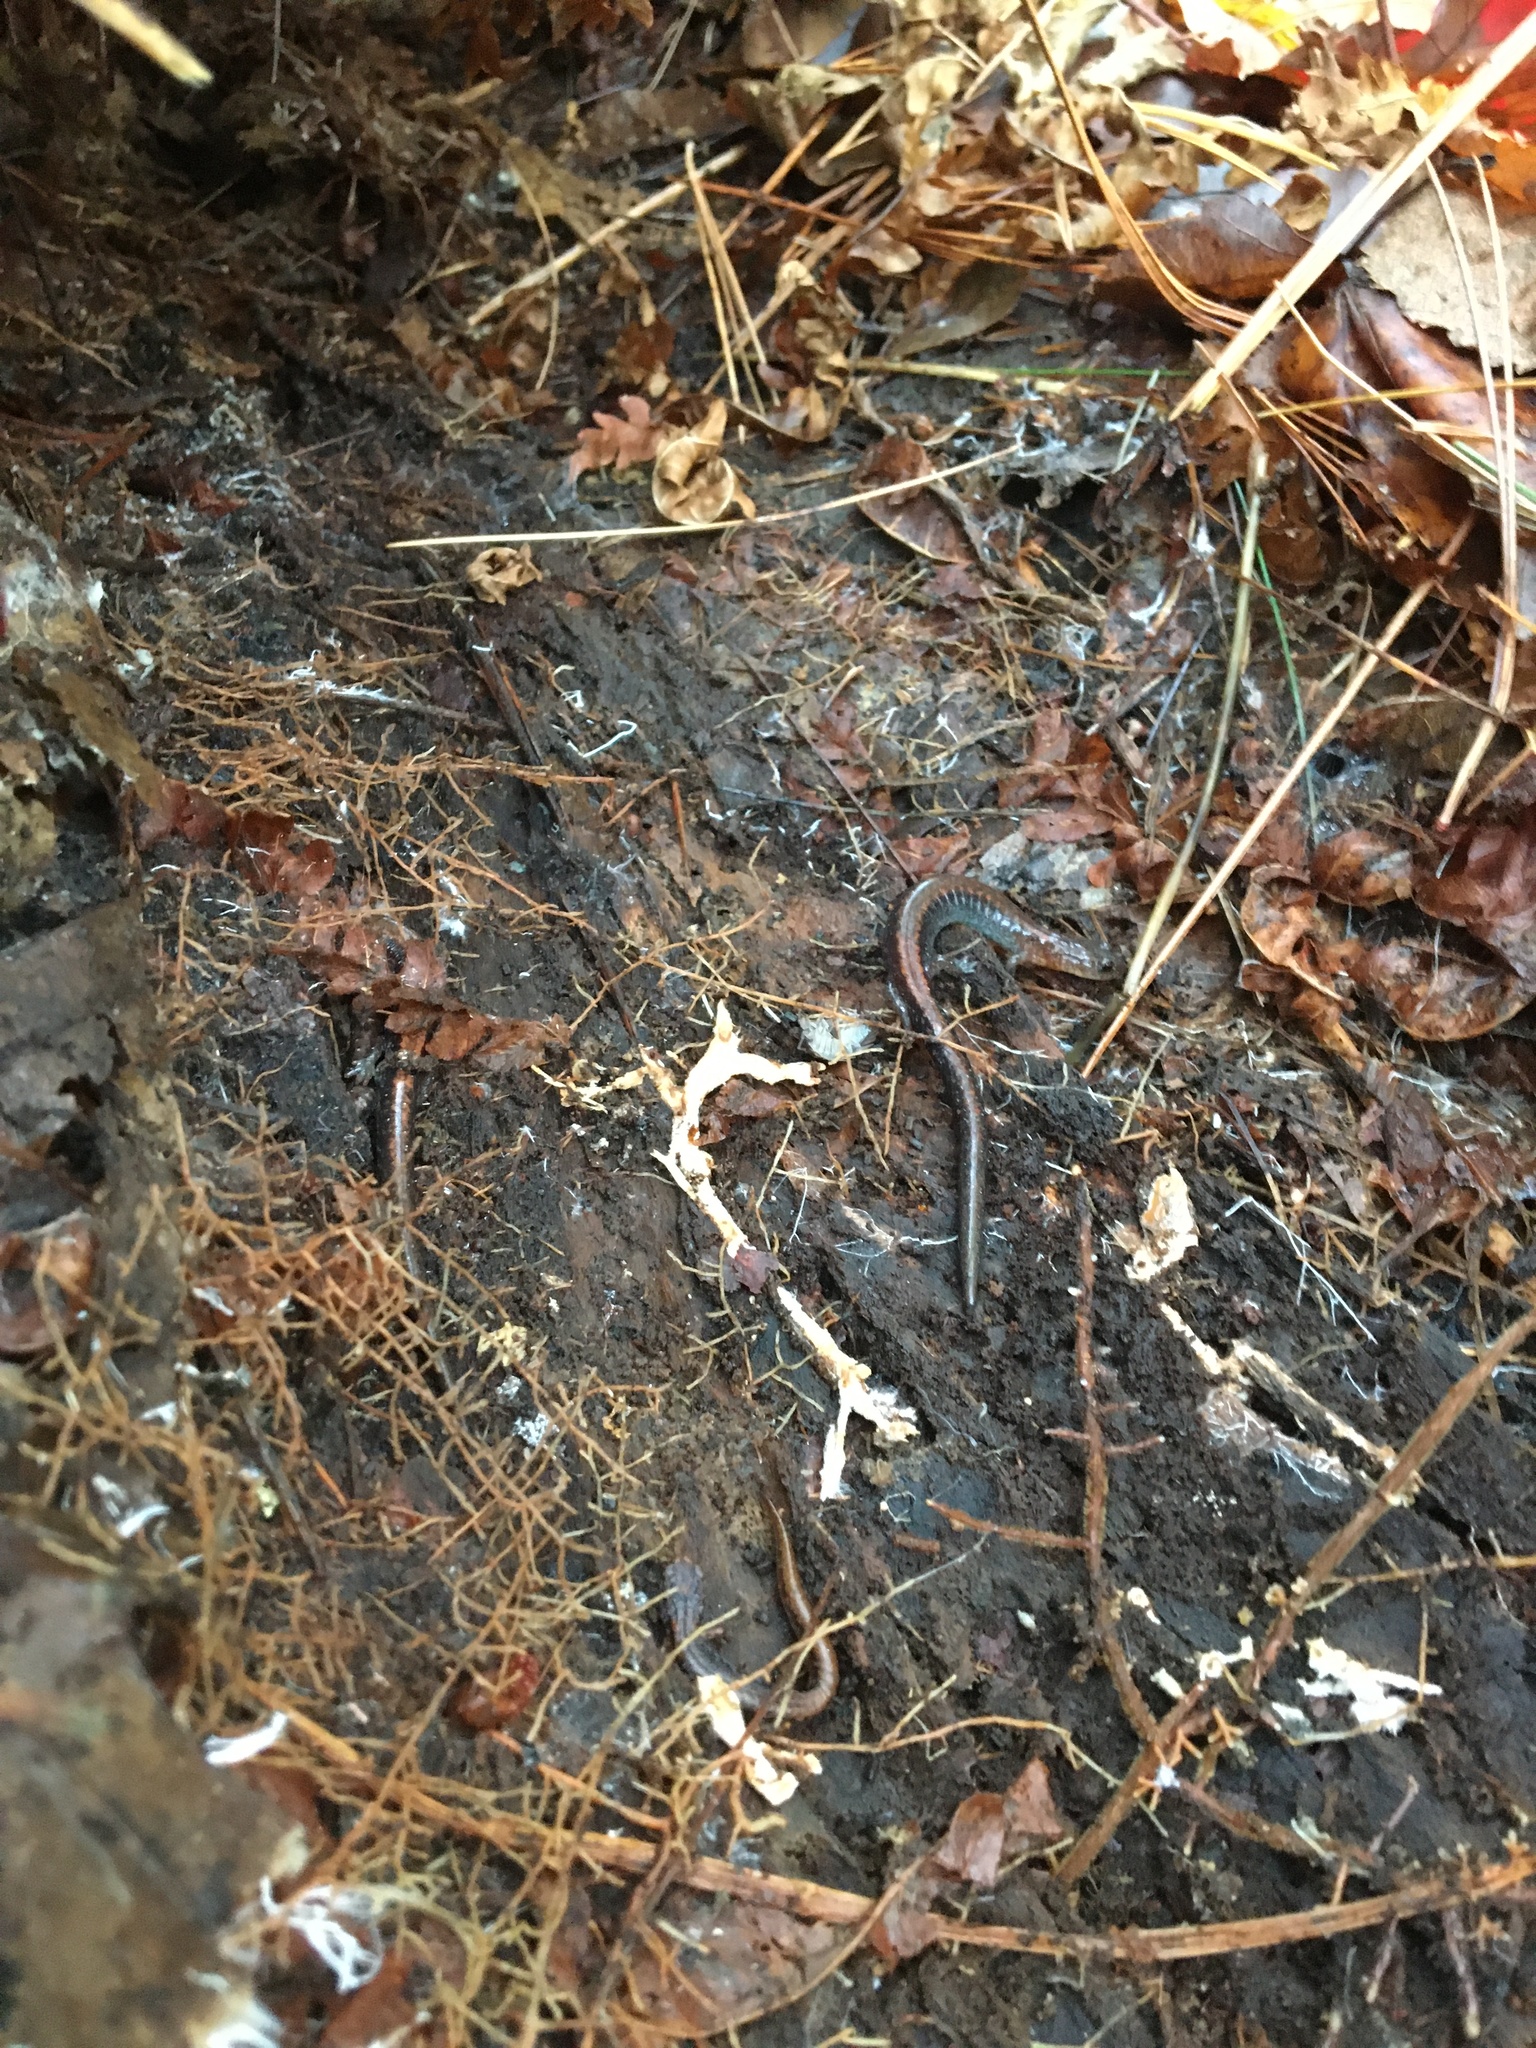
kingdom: Animalia
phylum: Chordata
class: Amphibia
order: Caudata
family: Plethodontidae
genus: Plethodon
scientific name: Plethodon cinereus
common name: Redback salamander
